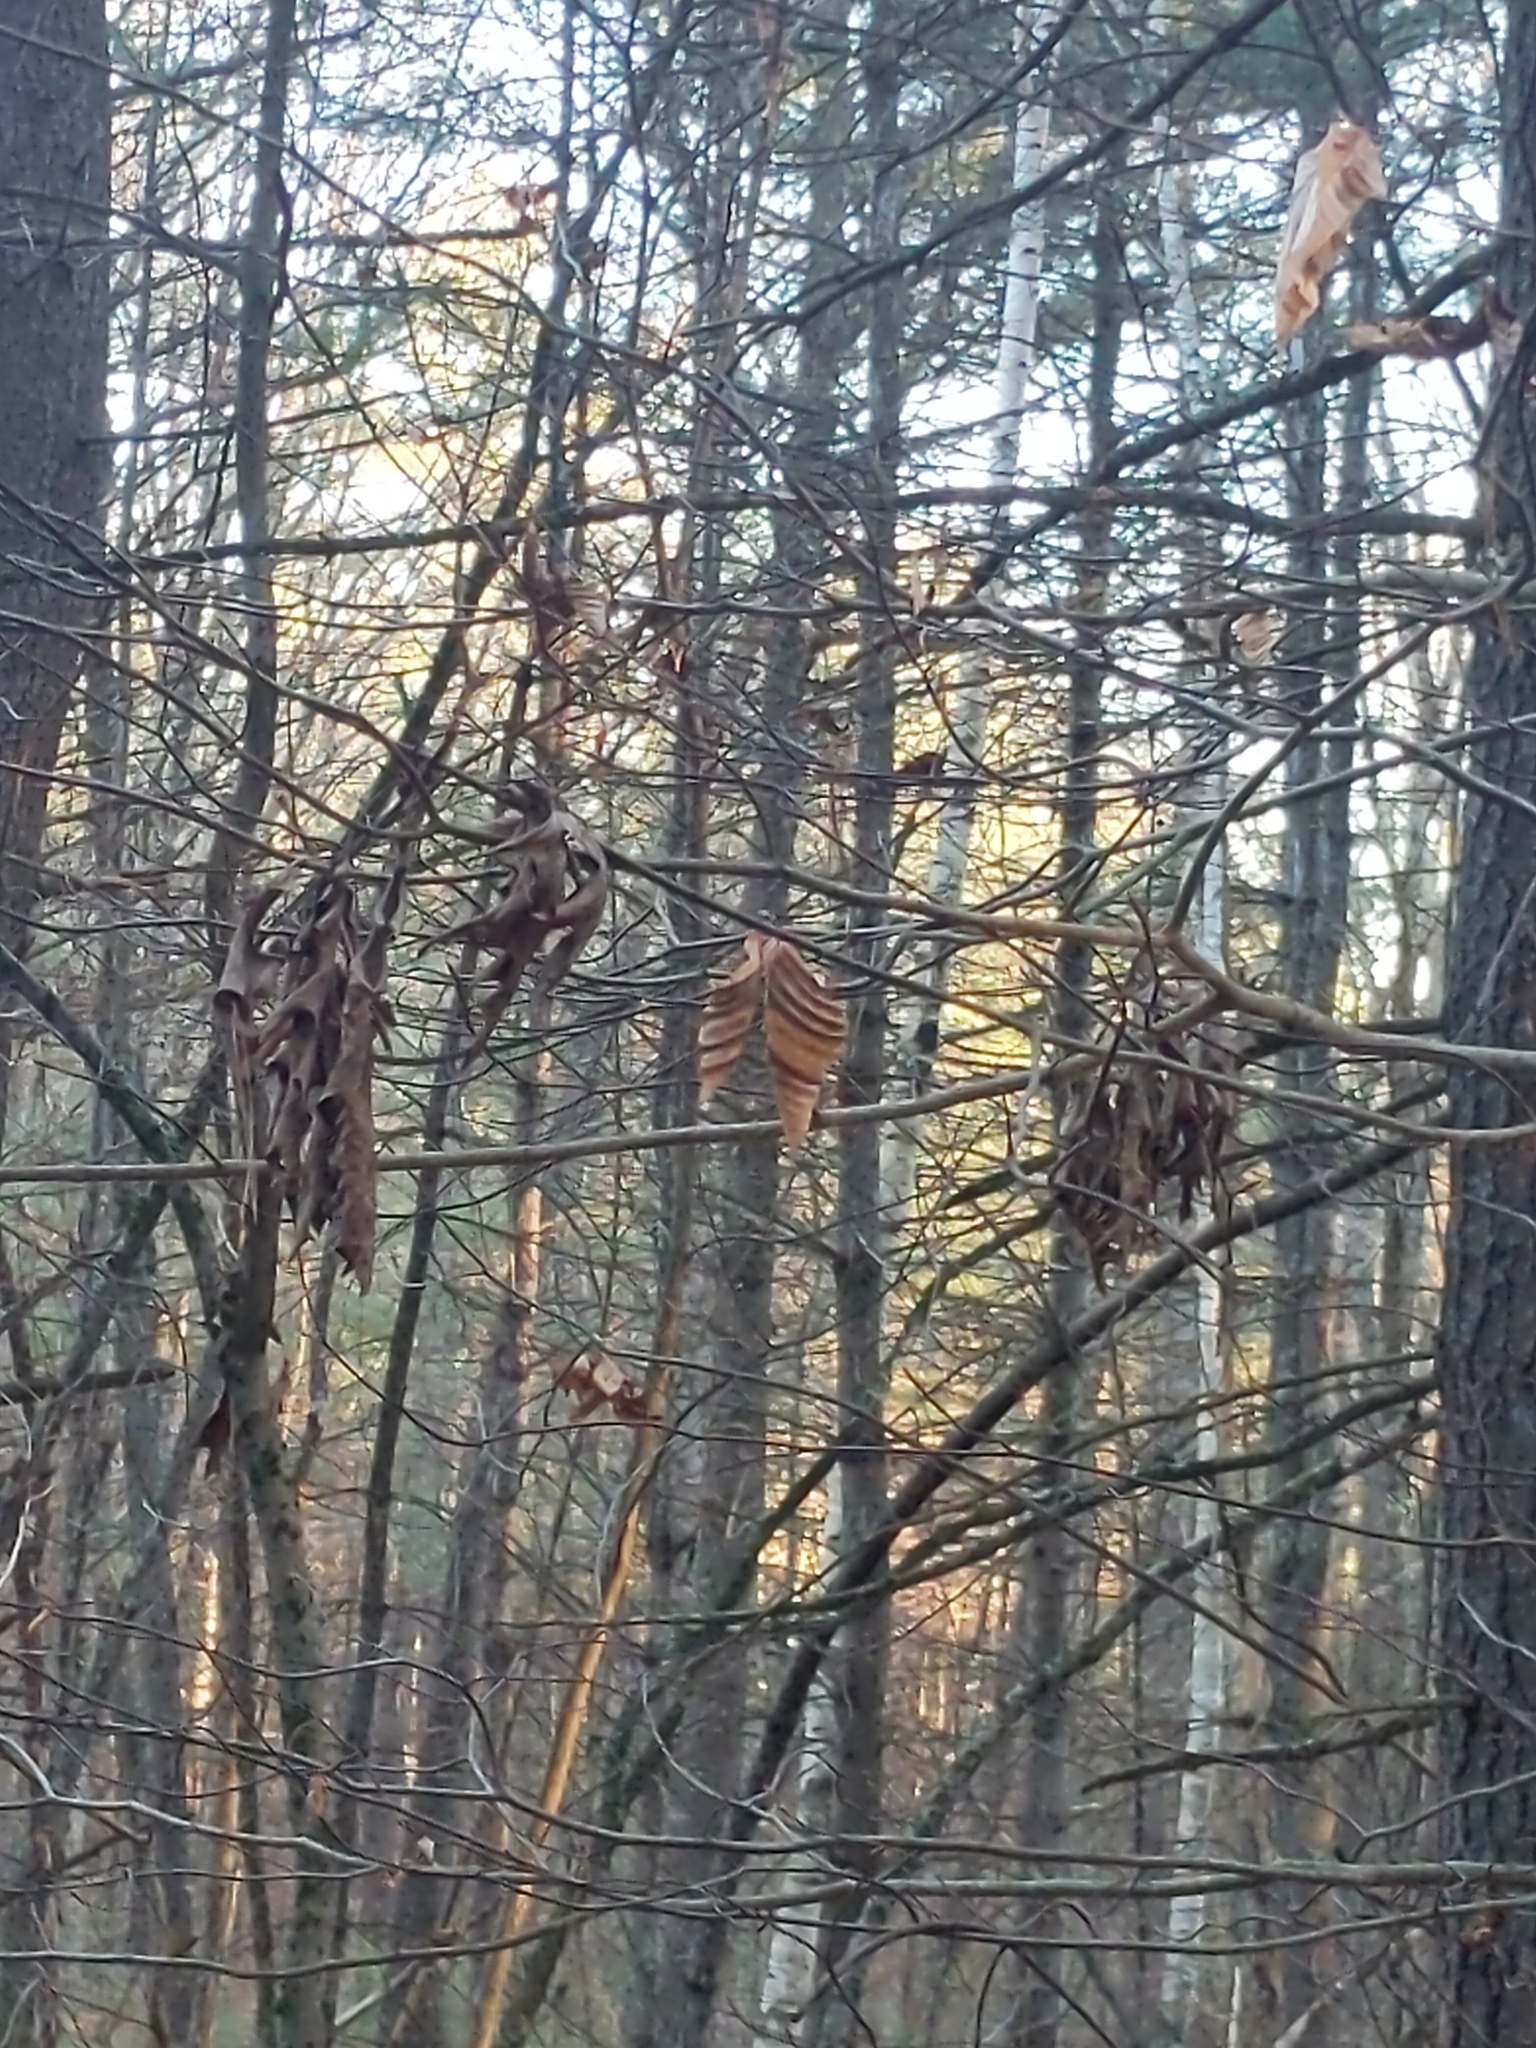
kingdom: Animalia
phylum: Nematoda
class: Chromadorea
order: Rhabditida
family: Anguinidae
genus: Litylenchus
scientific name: Litylenchus crenatae
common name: Beech leaf disease
